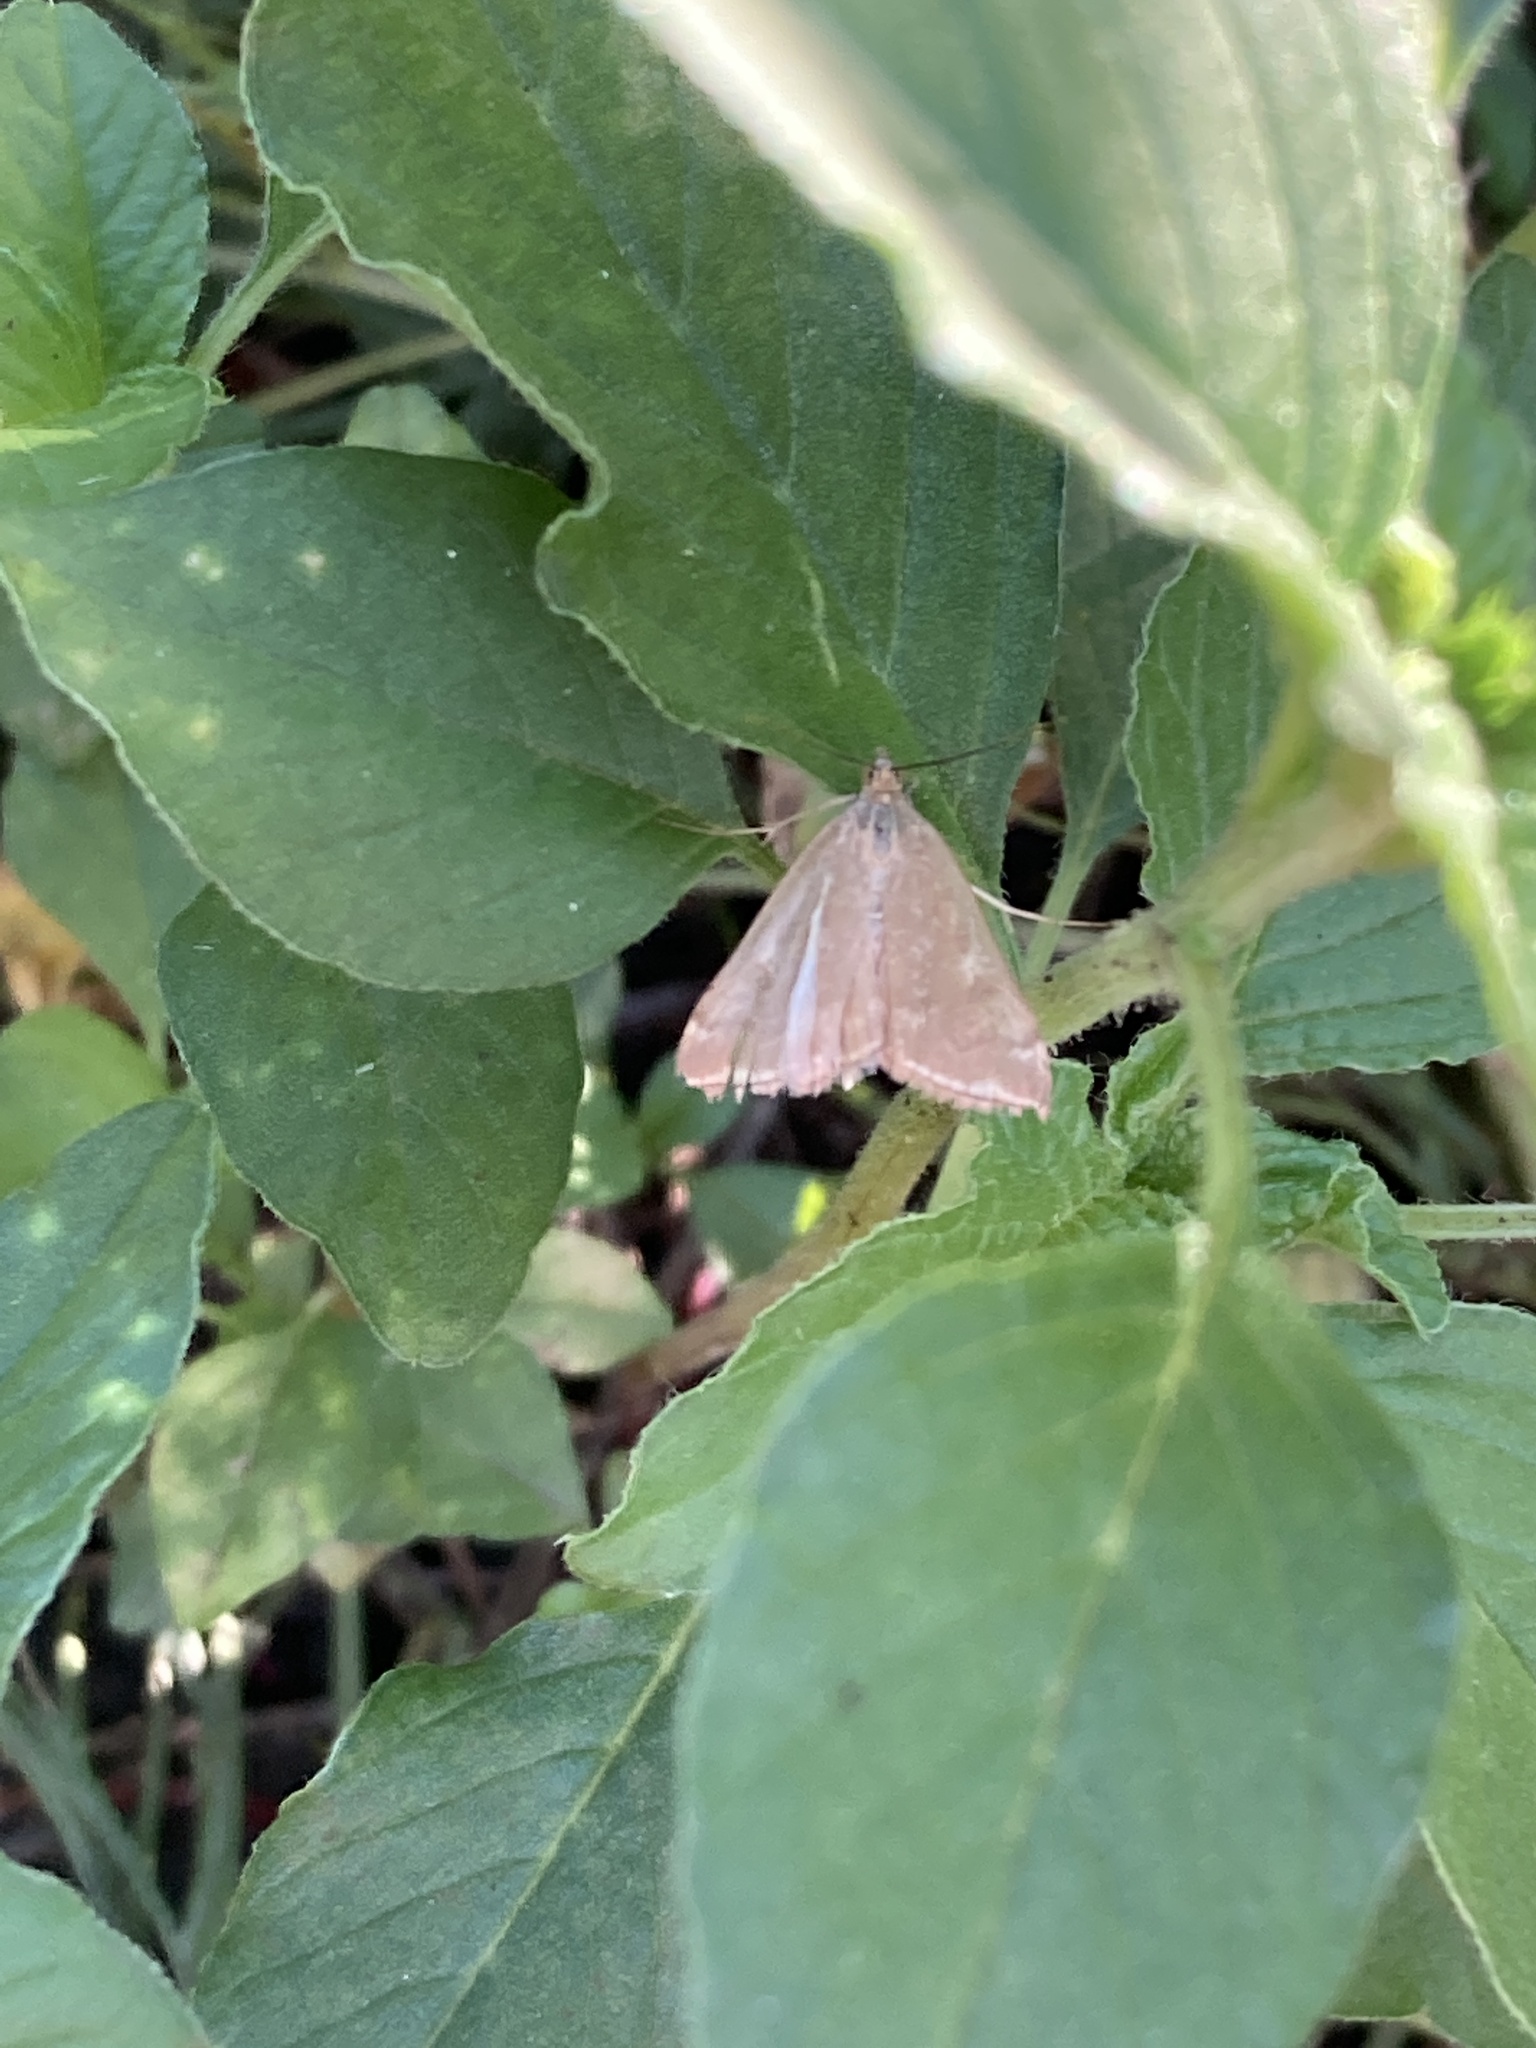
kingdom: Animalia
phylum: Arthropoda
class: Insecta
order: Lepidoptera
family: Crambidae
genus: Loxostege
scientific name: Loxostege sticticalis
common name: Crambid moth
